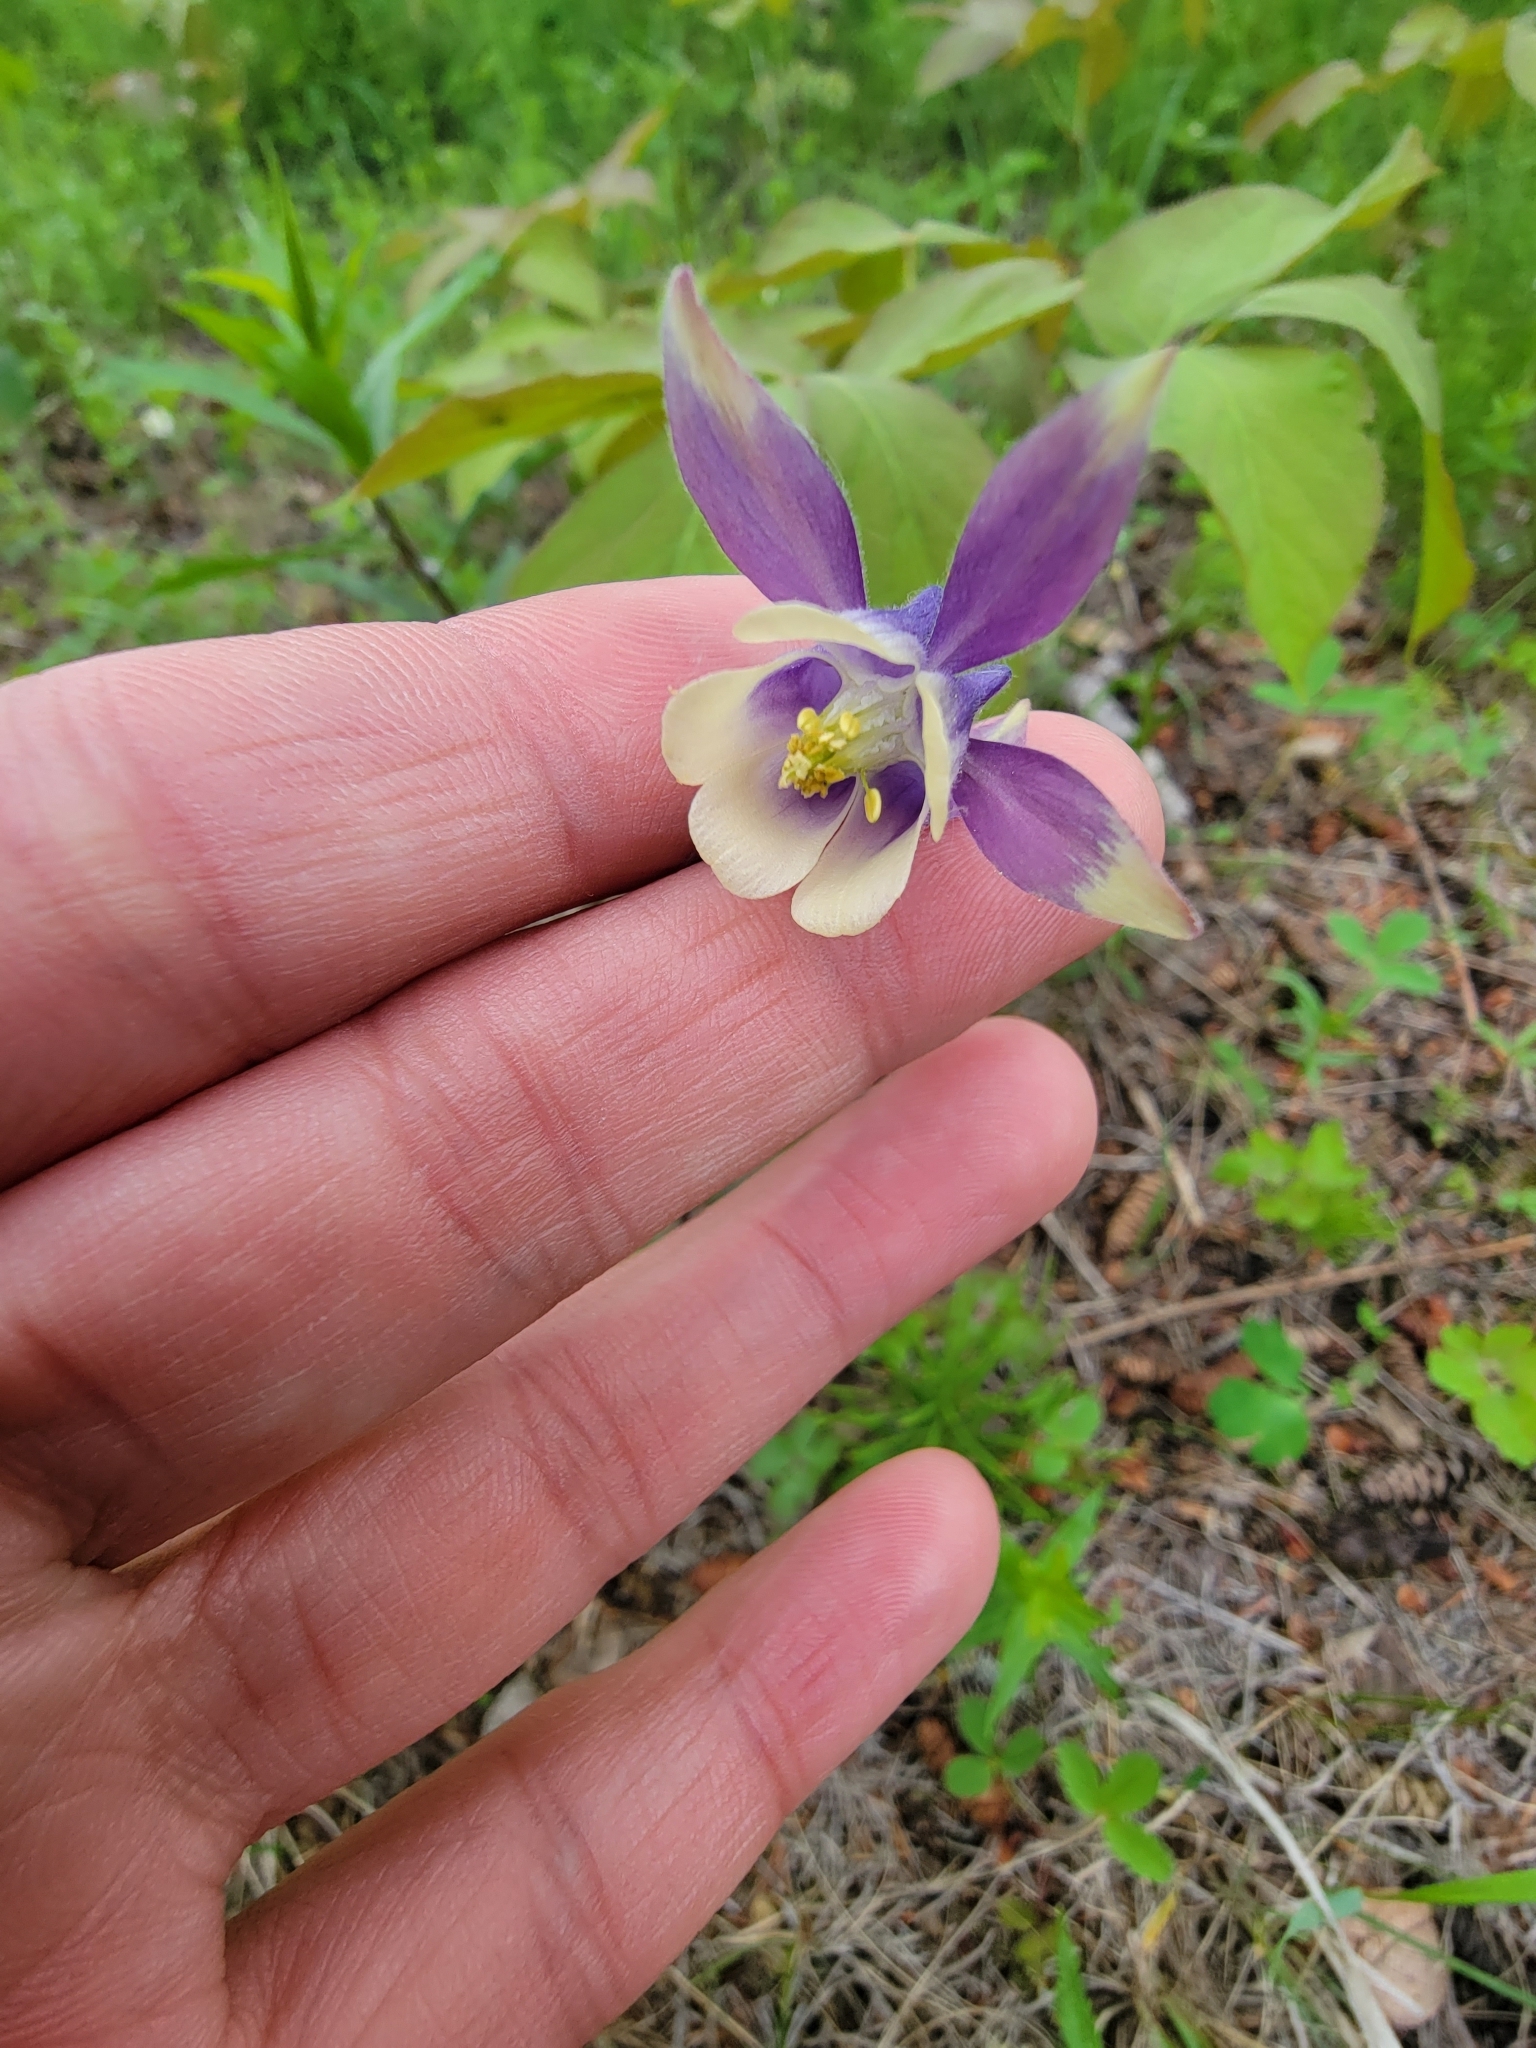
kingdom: Plantae
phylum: Tracheophyta
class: Magnoliopsida
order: Ranunculales
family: Ranunculaceae
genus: Aquilegia
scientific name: Aquilegia brevistyla
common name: Yukon columbine
